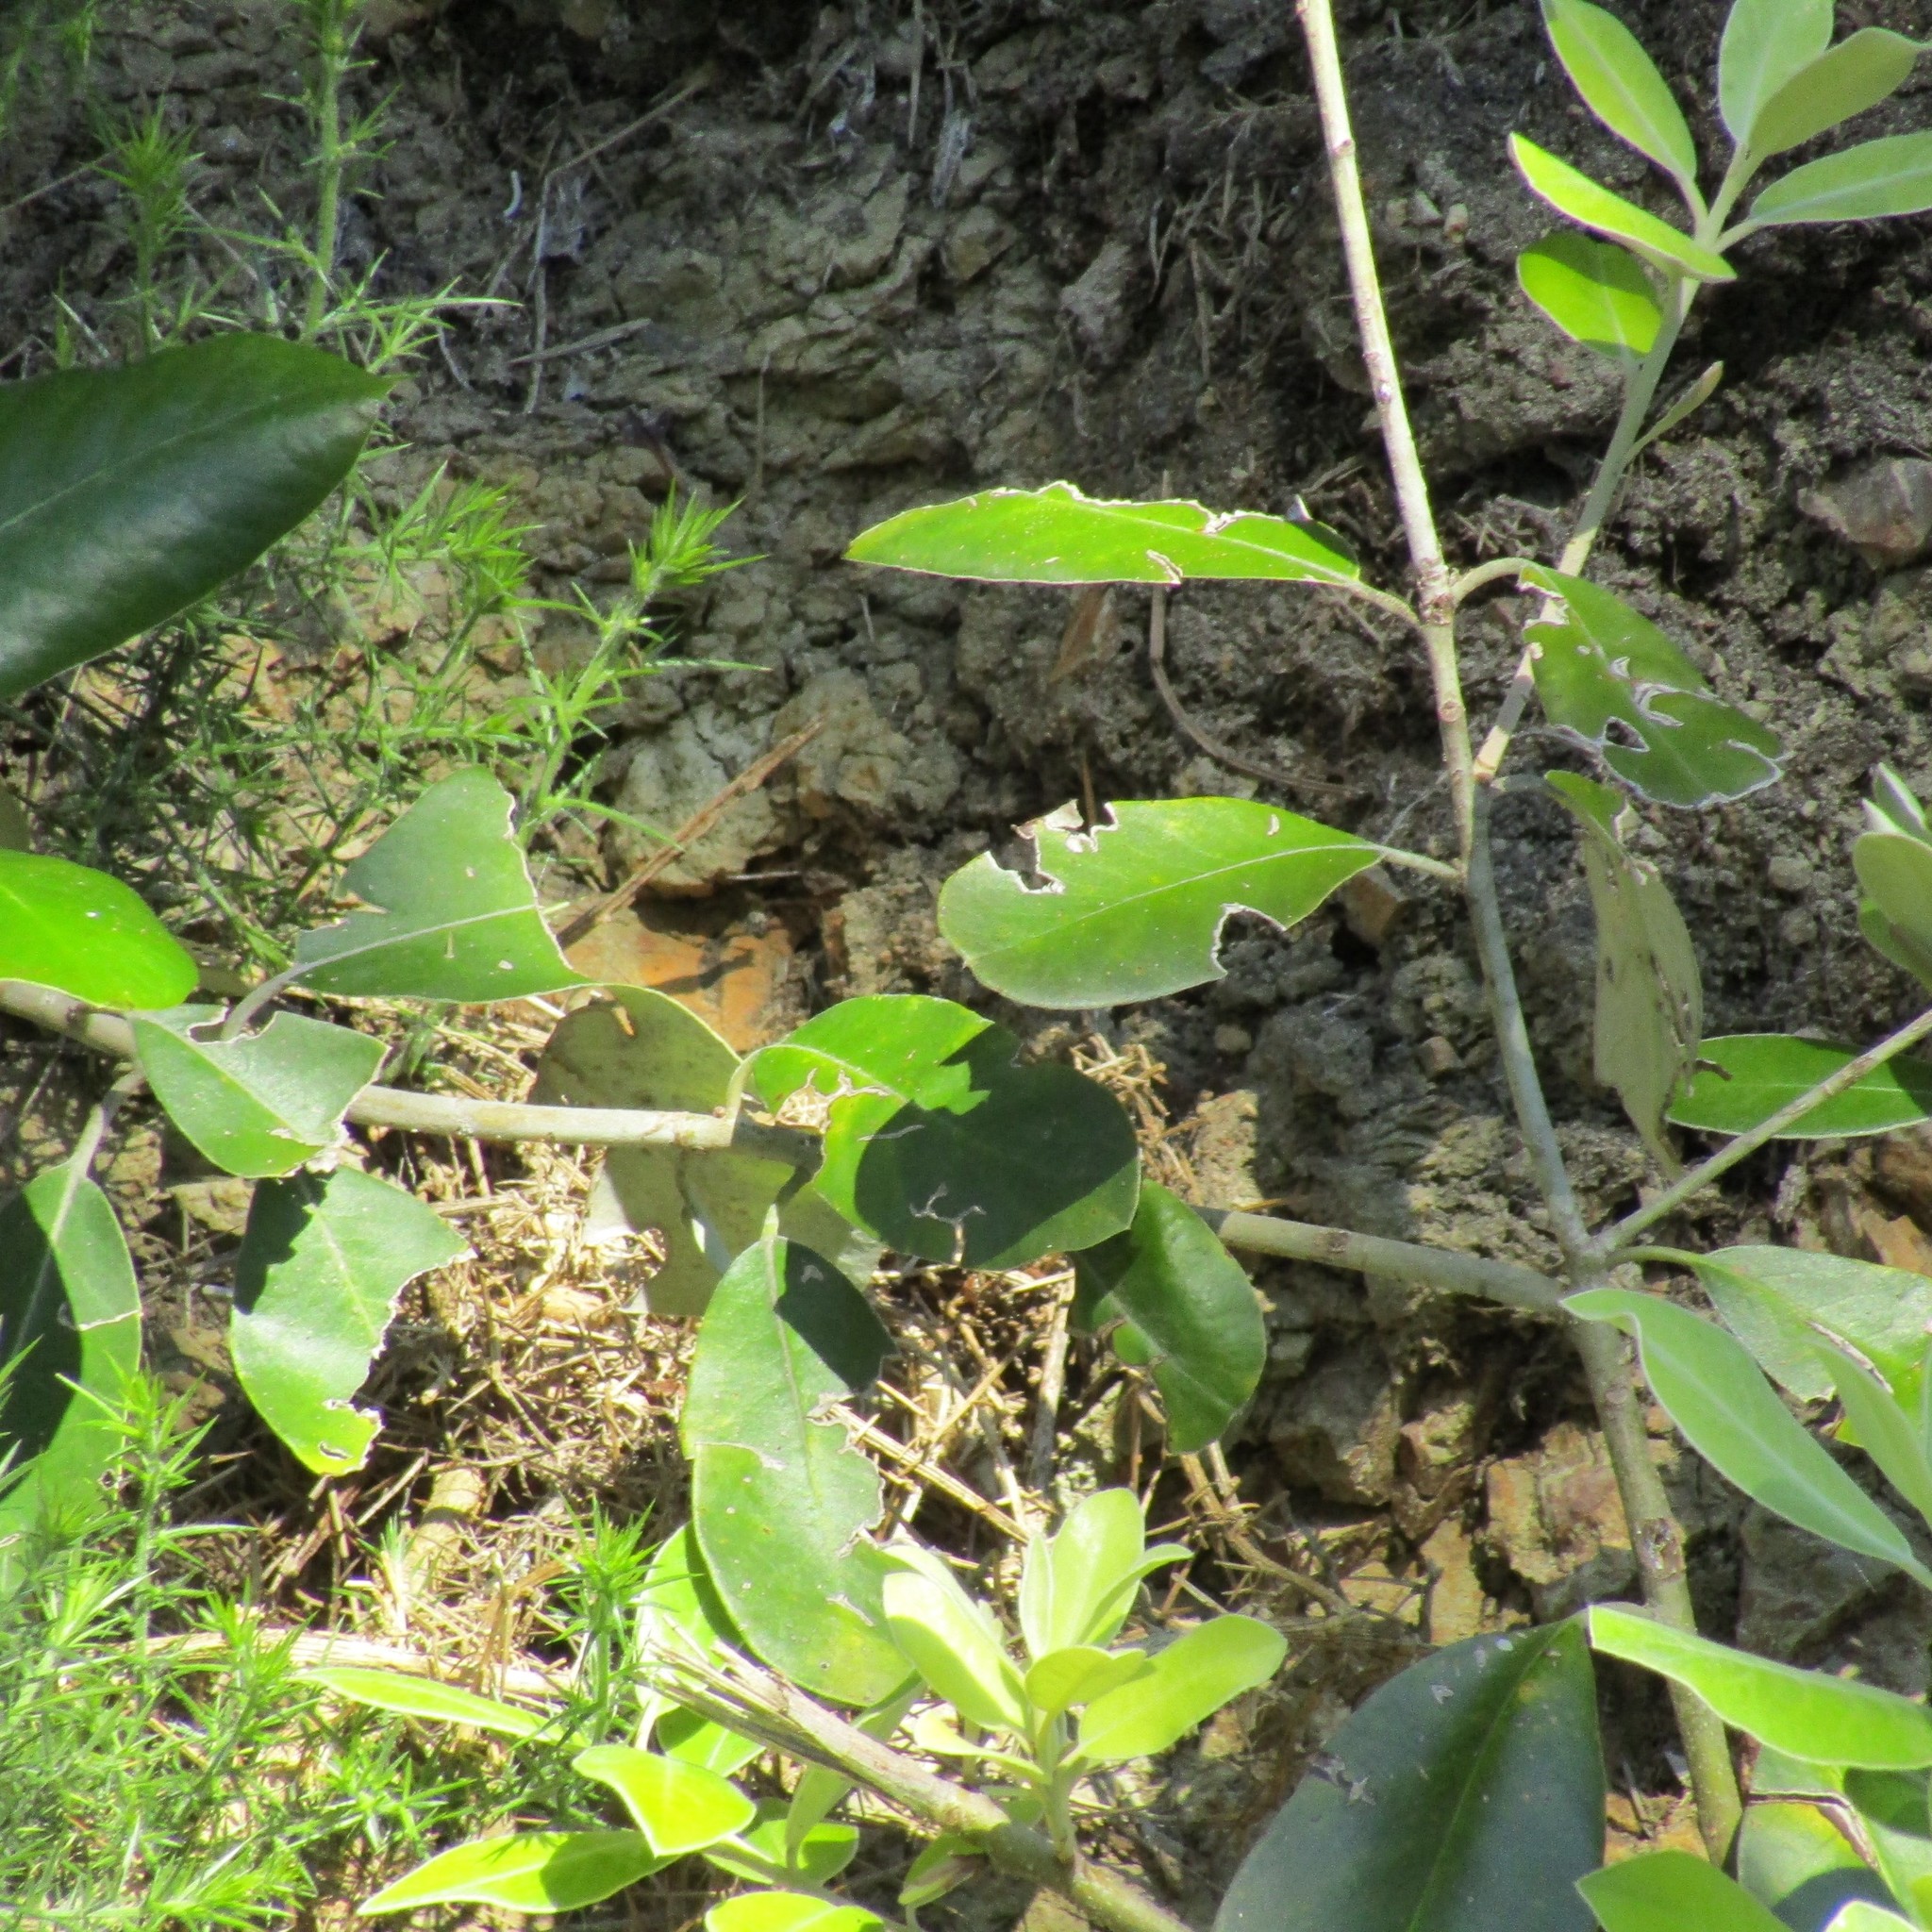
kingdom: Plantae
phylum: Tracheophyta
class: Magnoliopsida
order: Apiales
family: Pittosporaceae
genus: Pittosporum
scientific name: Pittosporum ralphii
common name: Ralph's desertwillow
